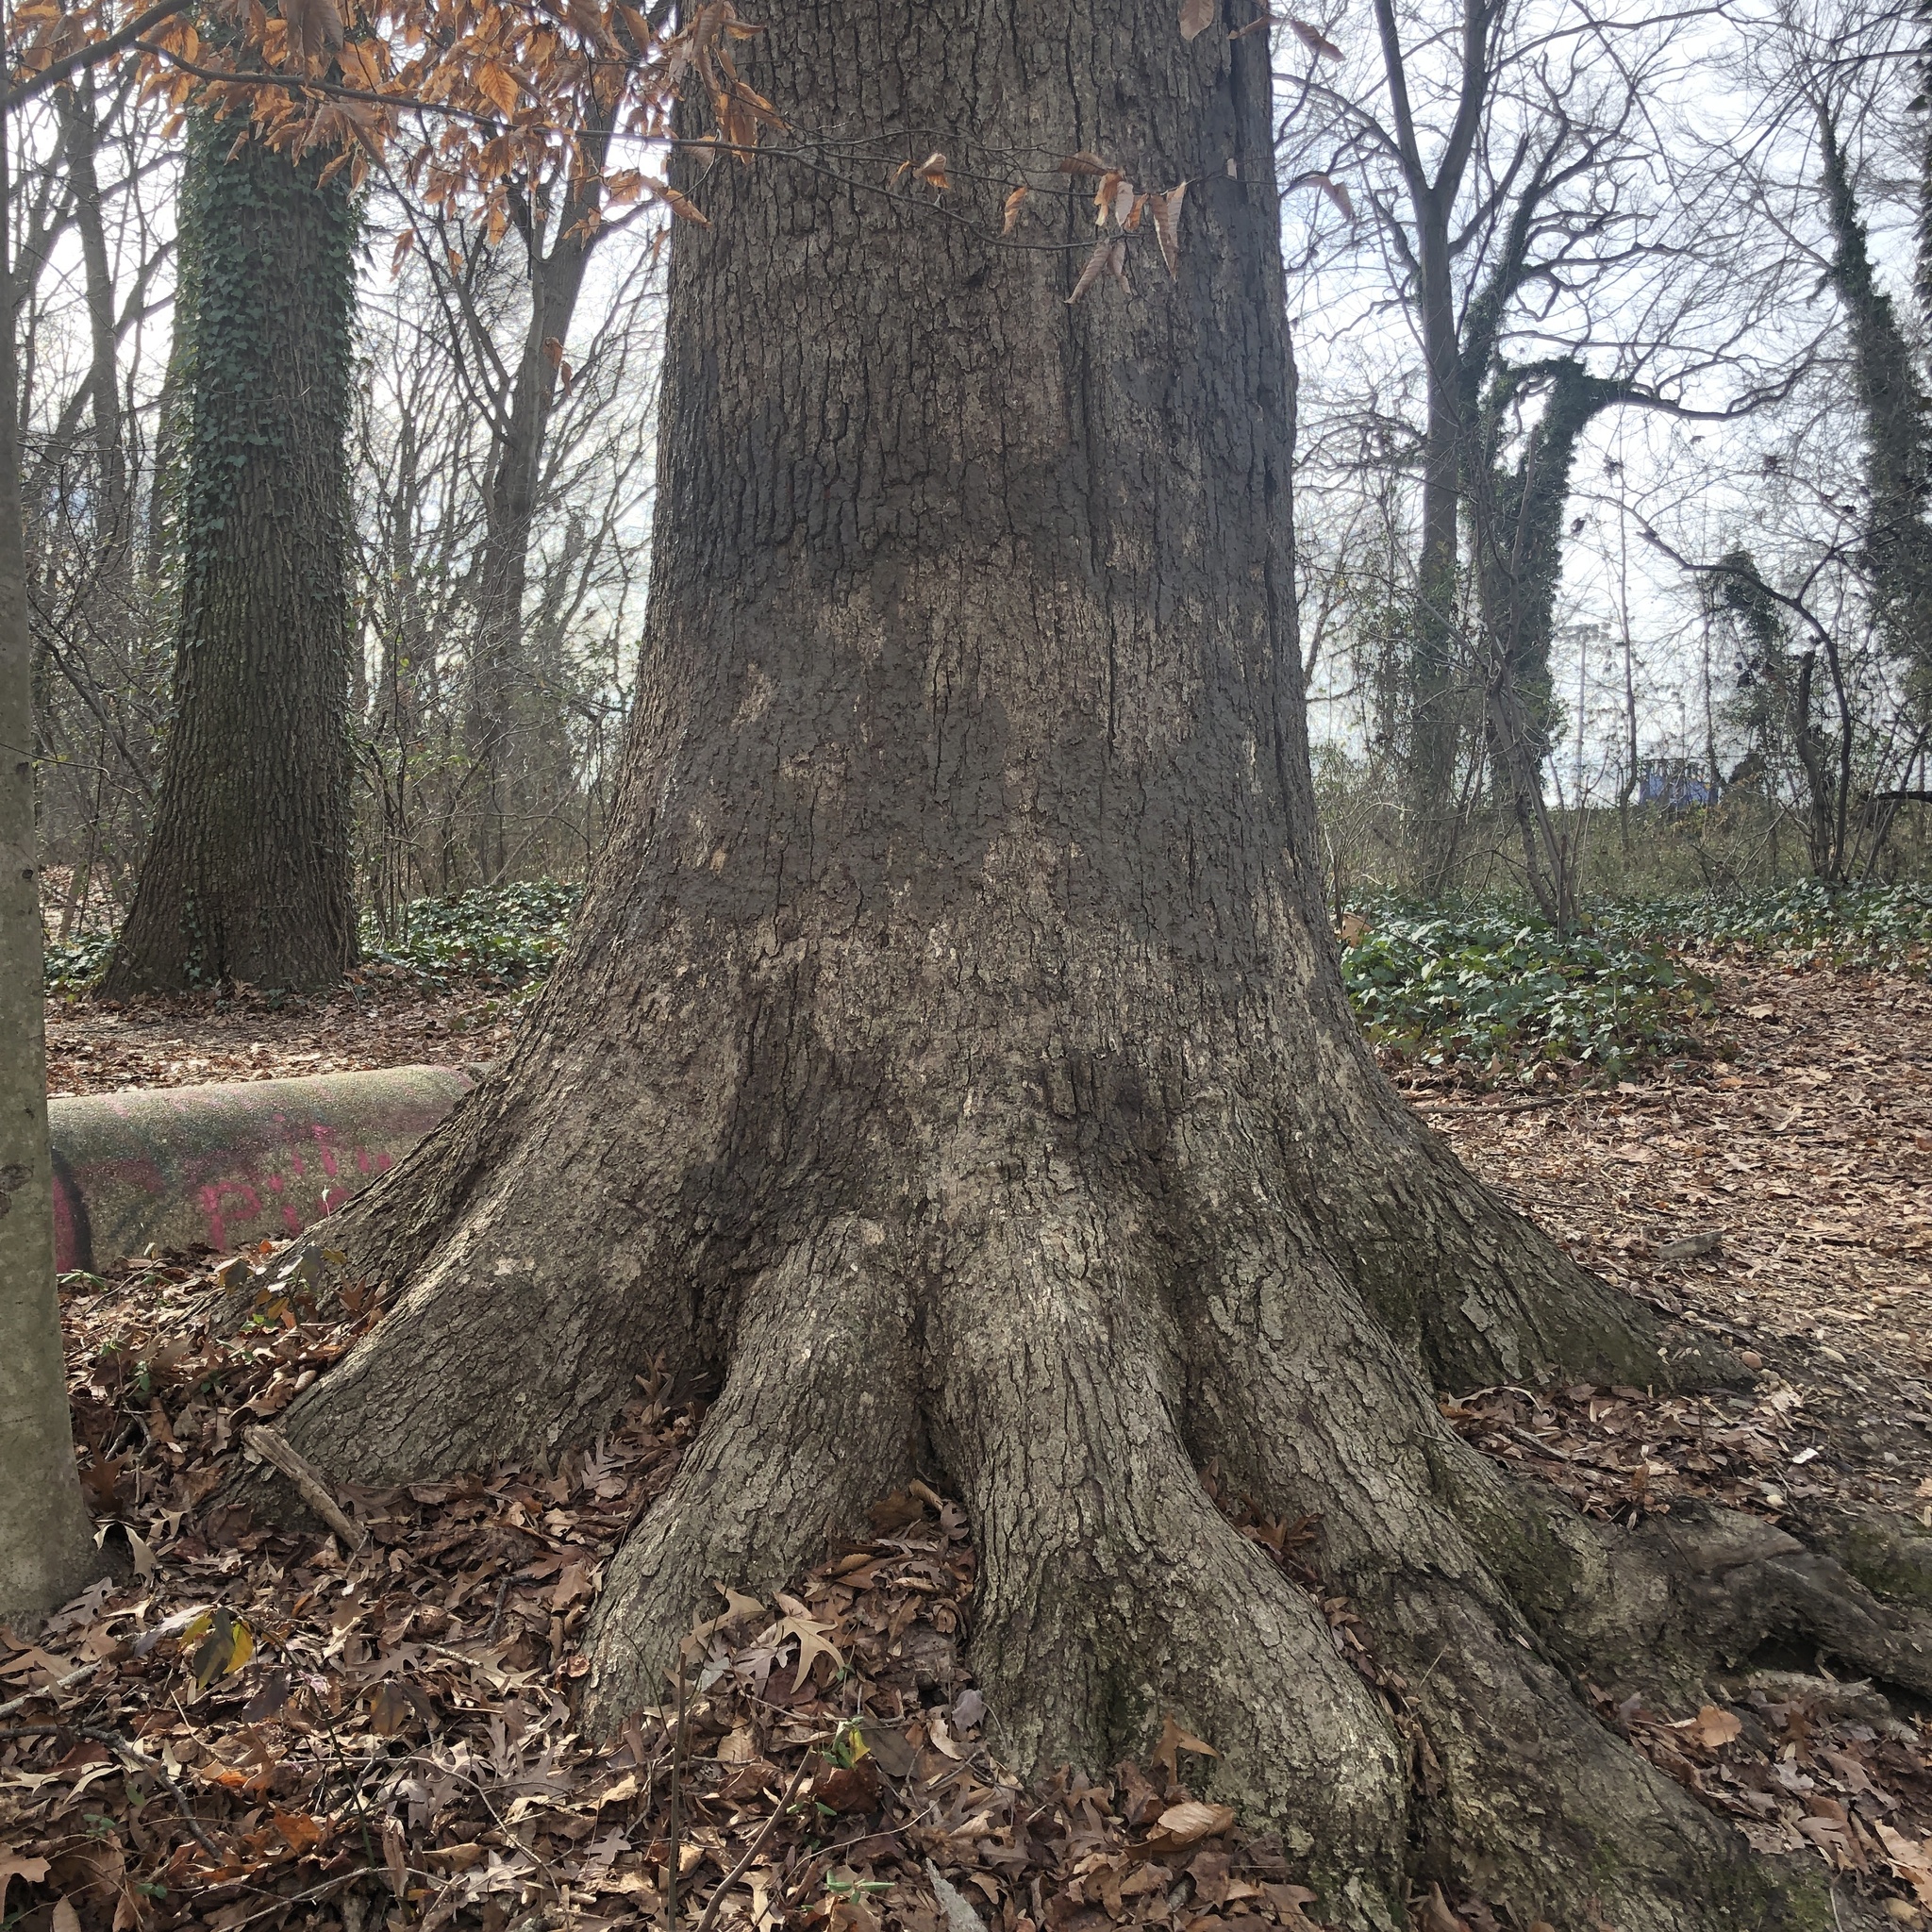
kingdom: Plantae
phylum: Tracheophyta
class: Magnoliopsida
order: Fagales
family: Fagaceae
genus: Quercus
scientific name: Quercus alba
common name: White oak
